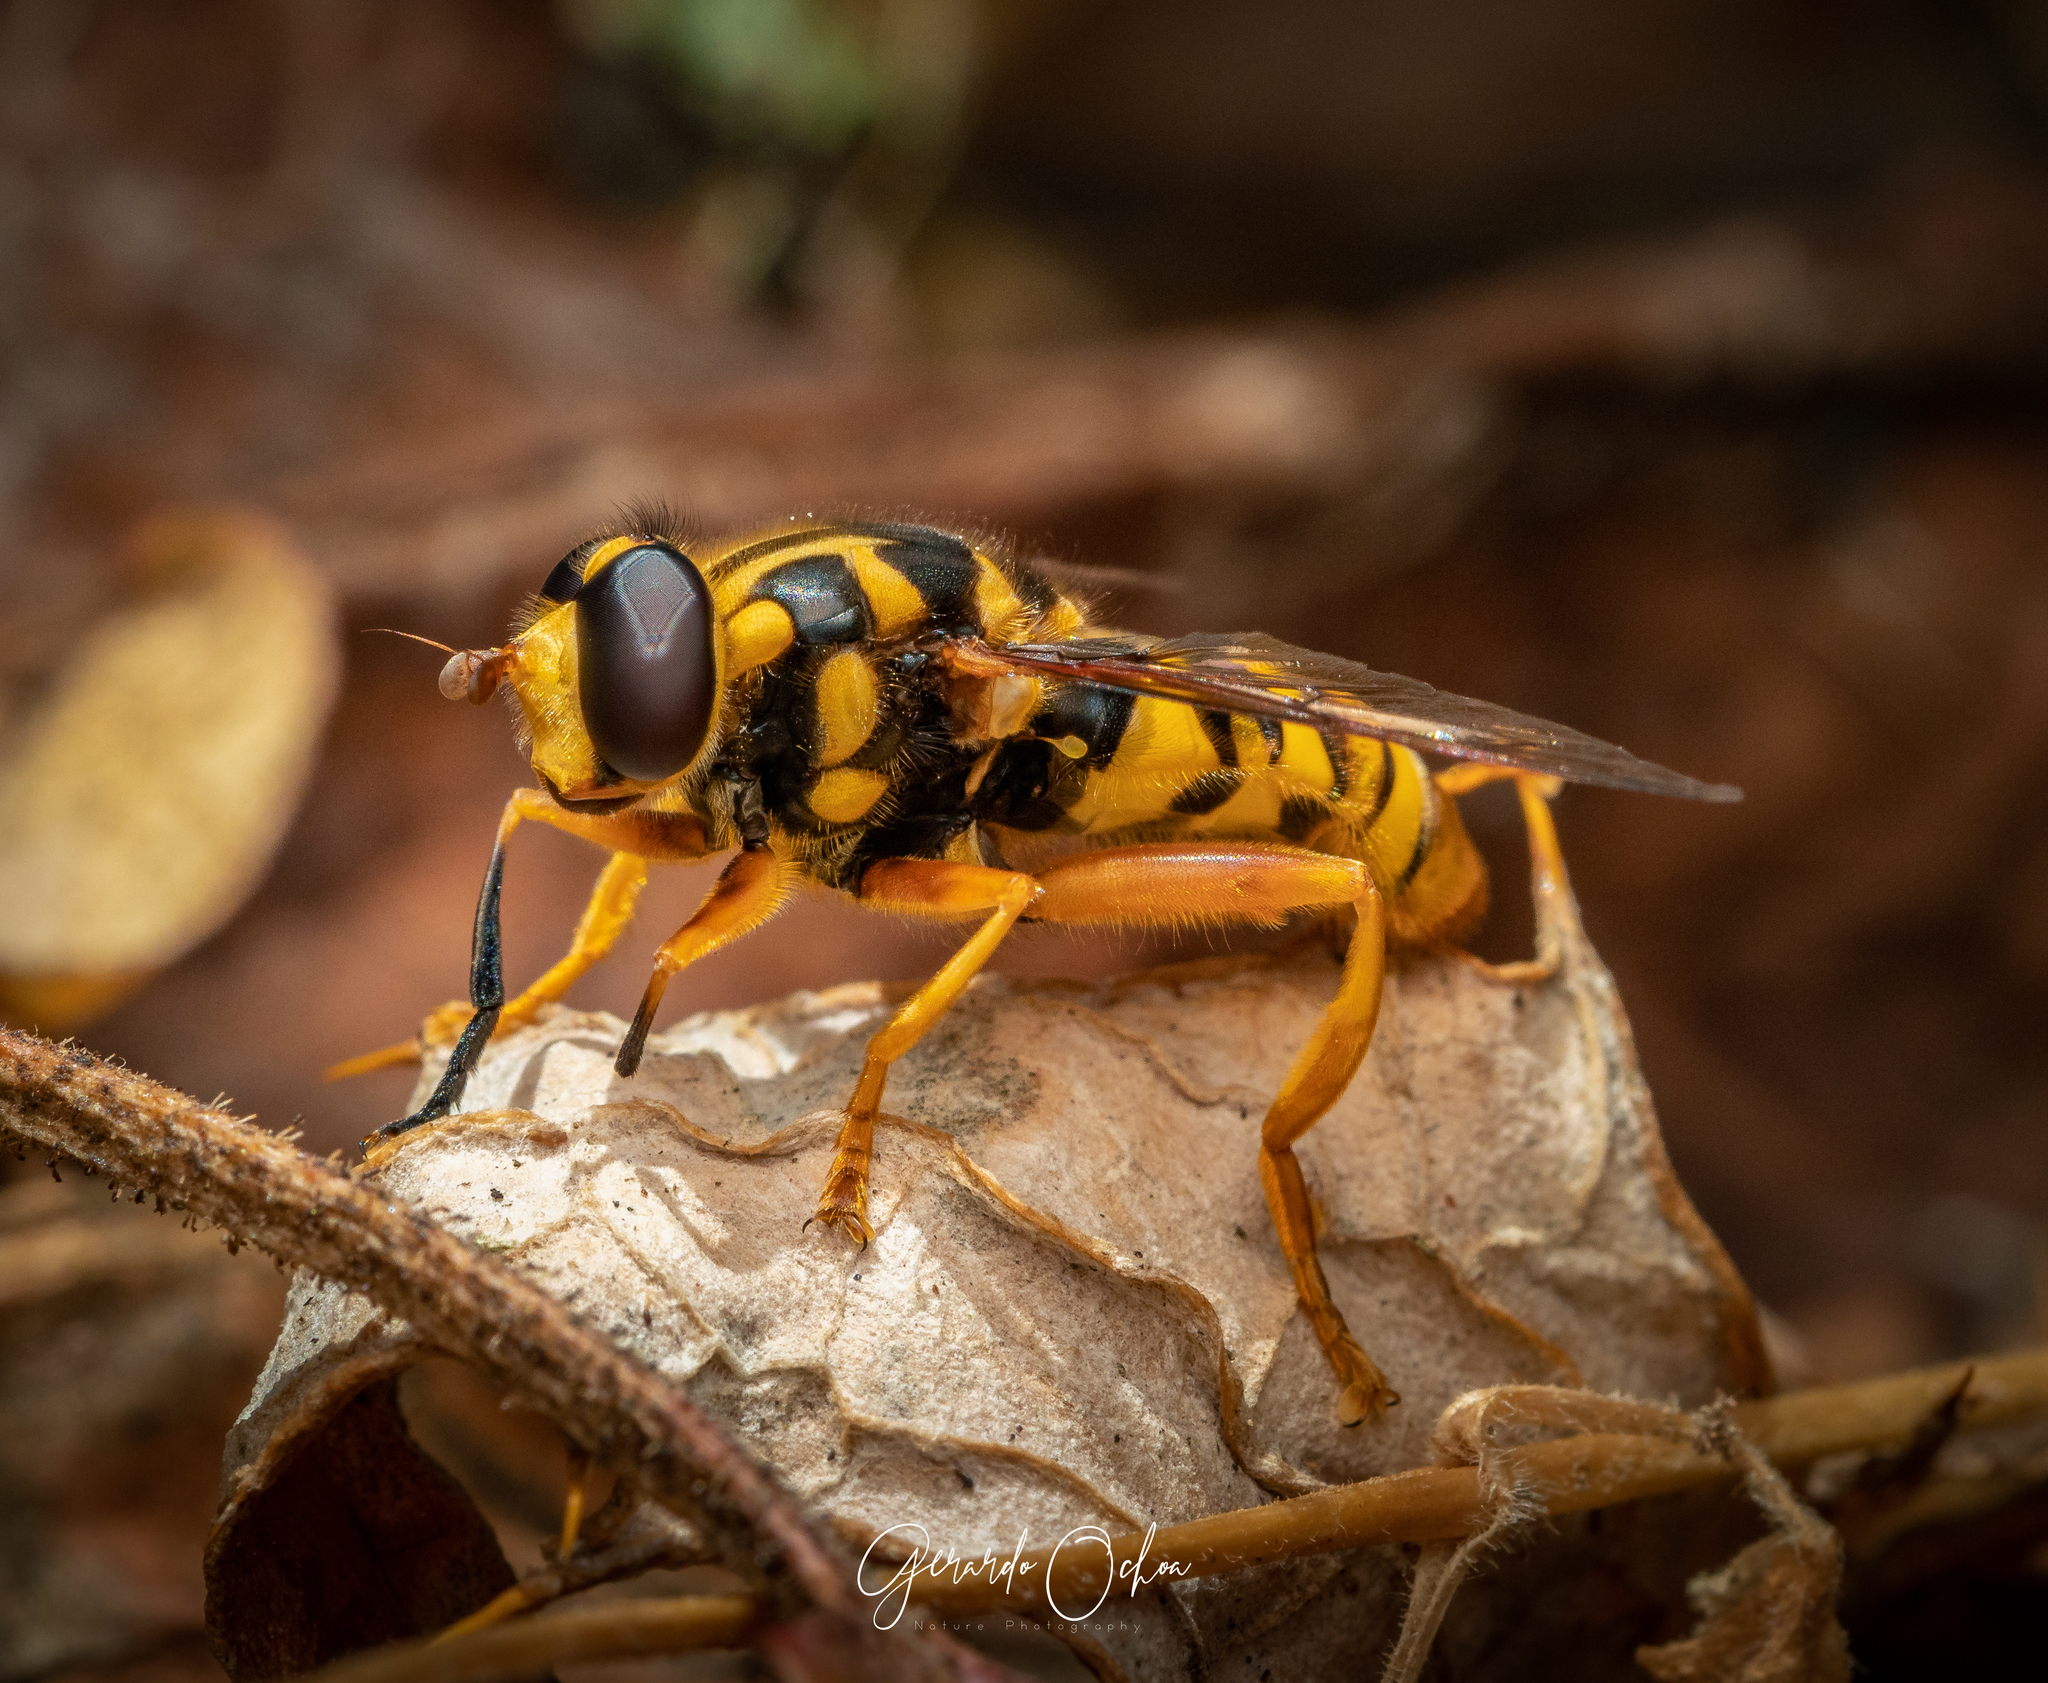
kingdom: Animalia
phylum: Arthropoda
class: Insecta
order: Diptera
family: Syrphidae
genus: Milesia
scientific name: Milesia bella
